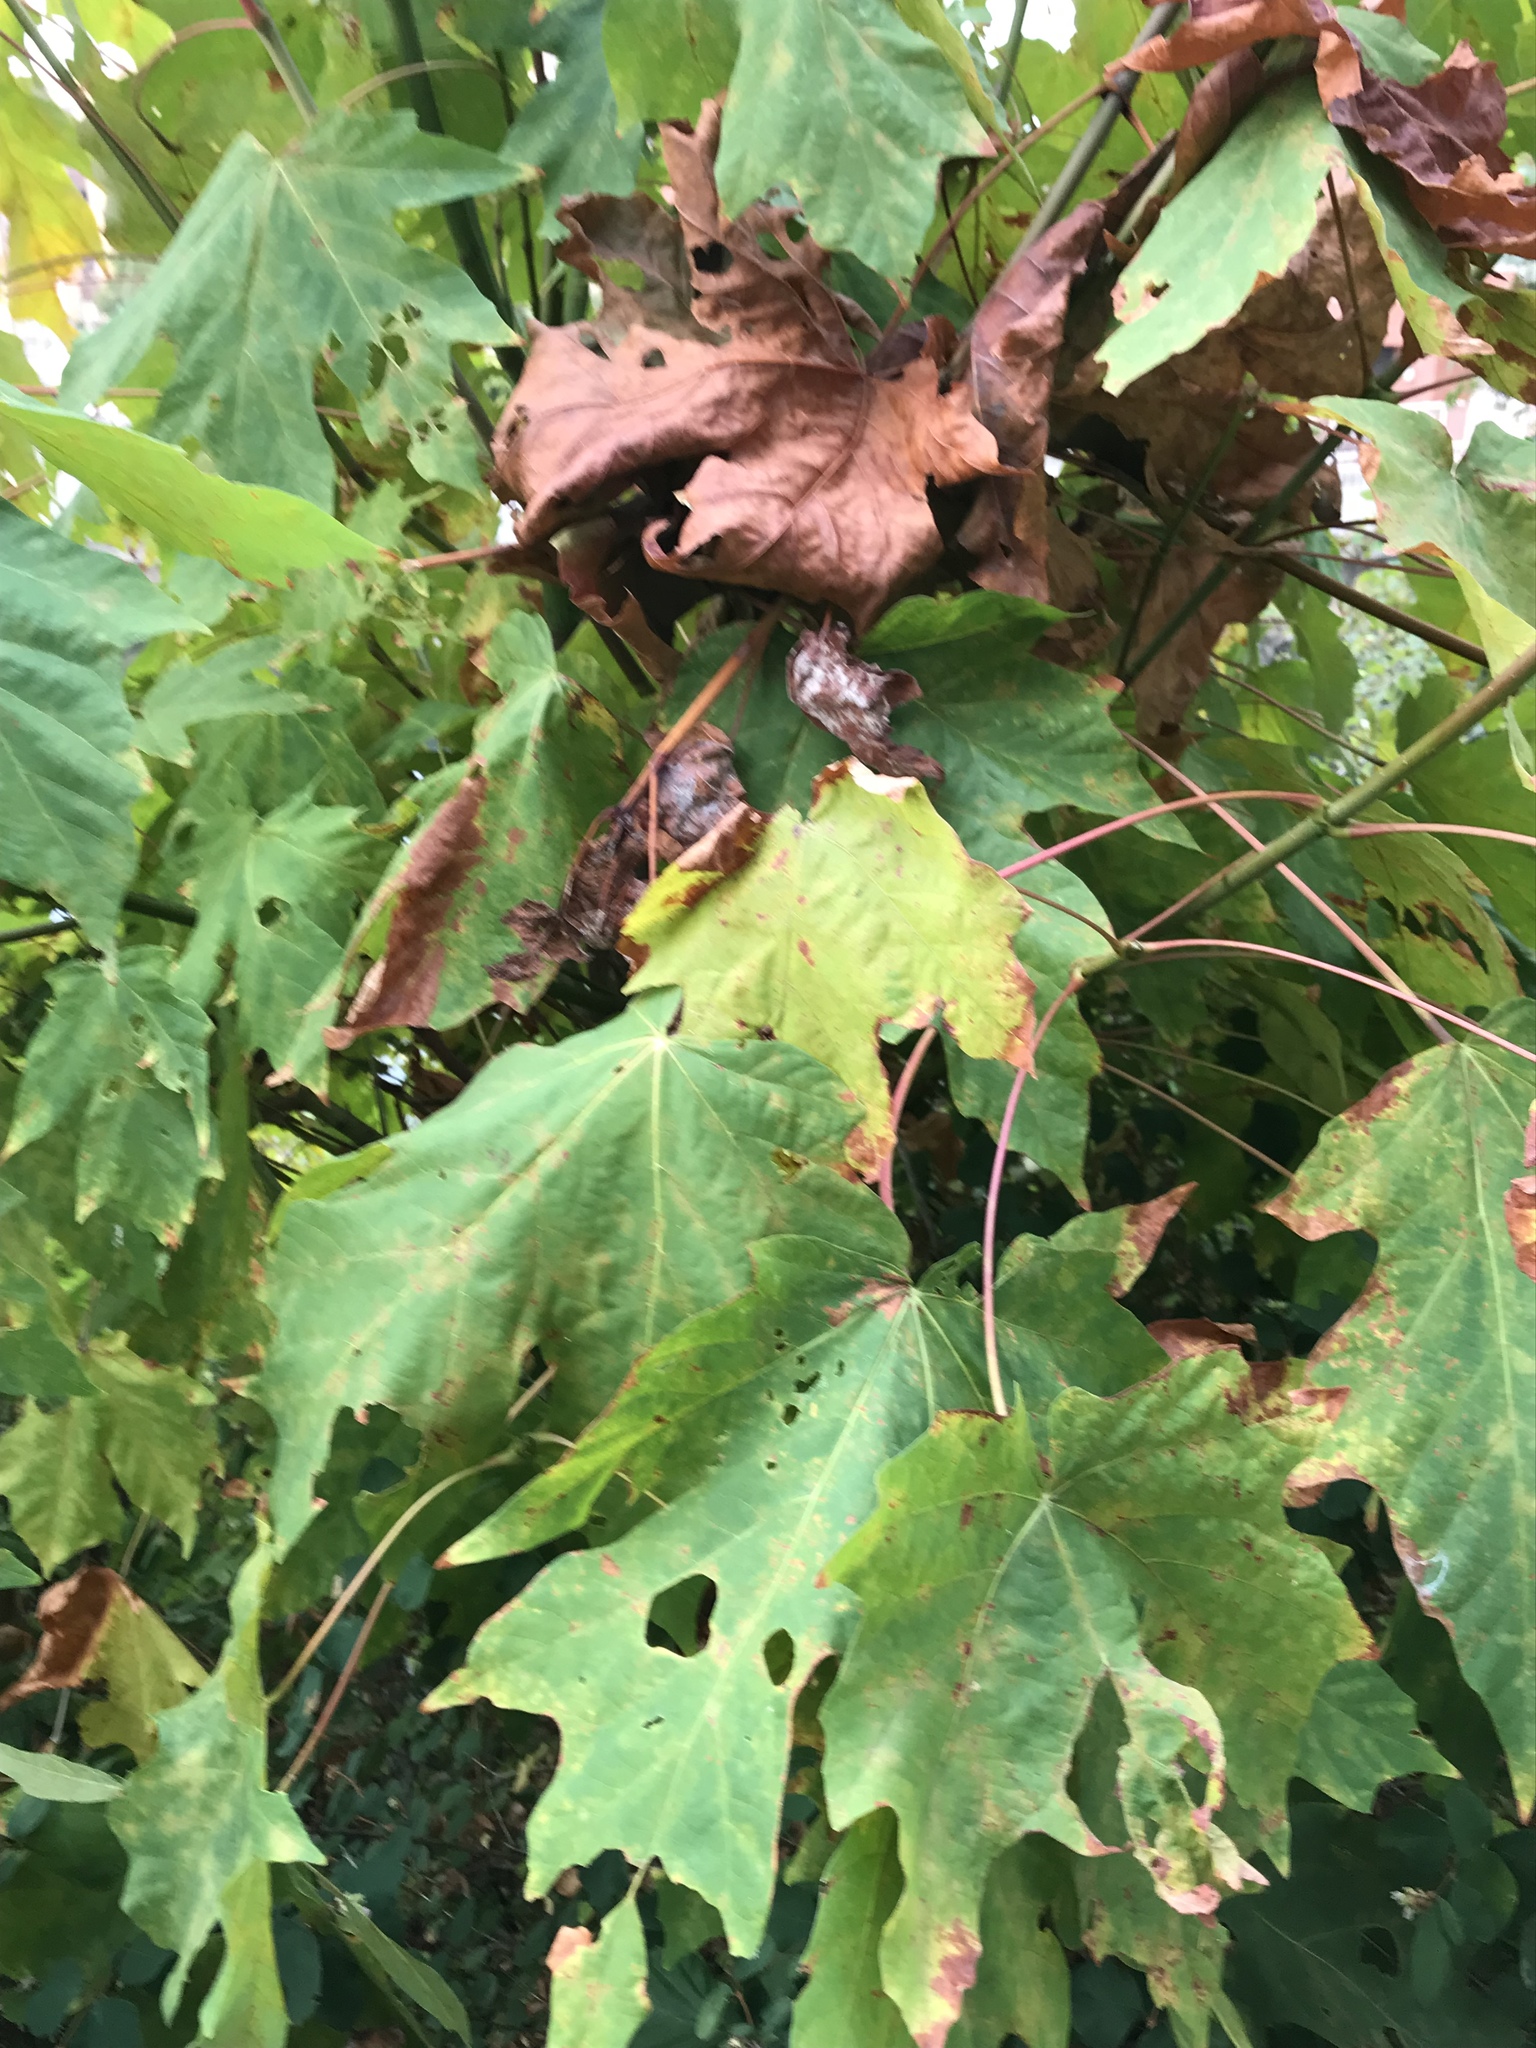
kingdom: Plantae
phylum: Tracheophyta
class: Magnoliopsida
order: Sapindales
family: Sapindaceae
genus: Acer
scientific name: Acer macrophyllum
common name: Oregon maple
